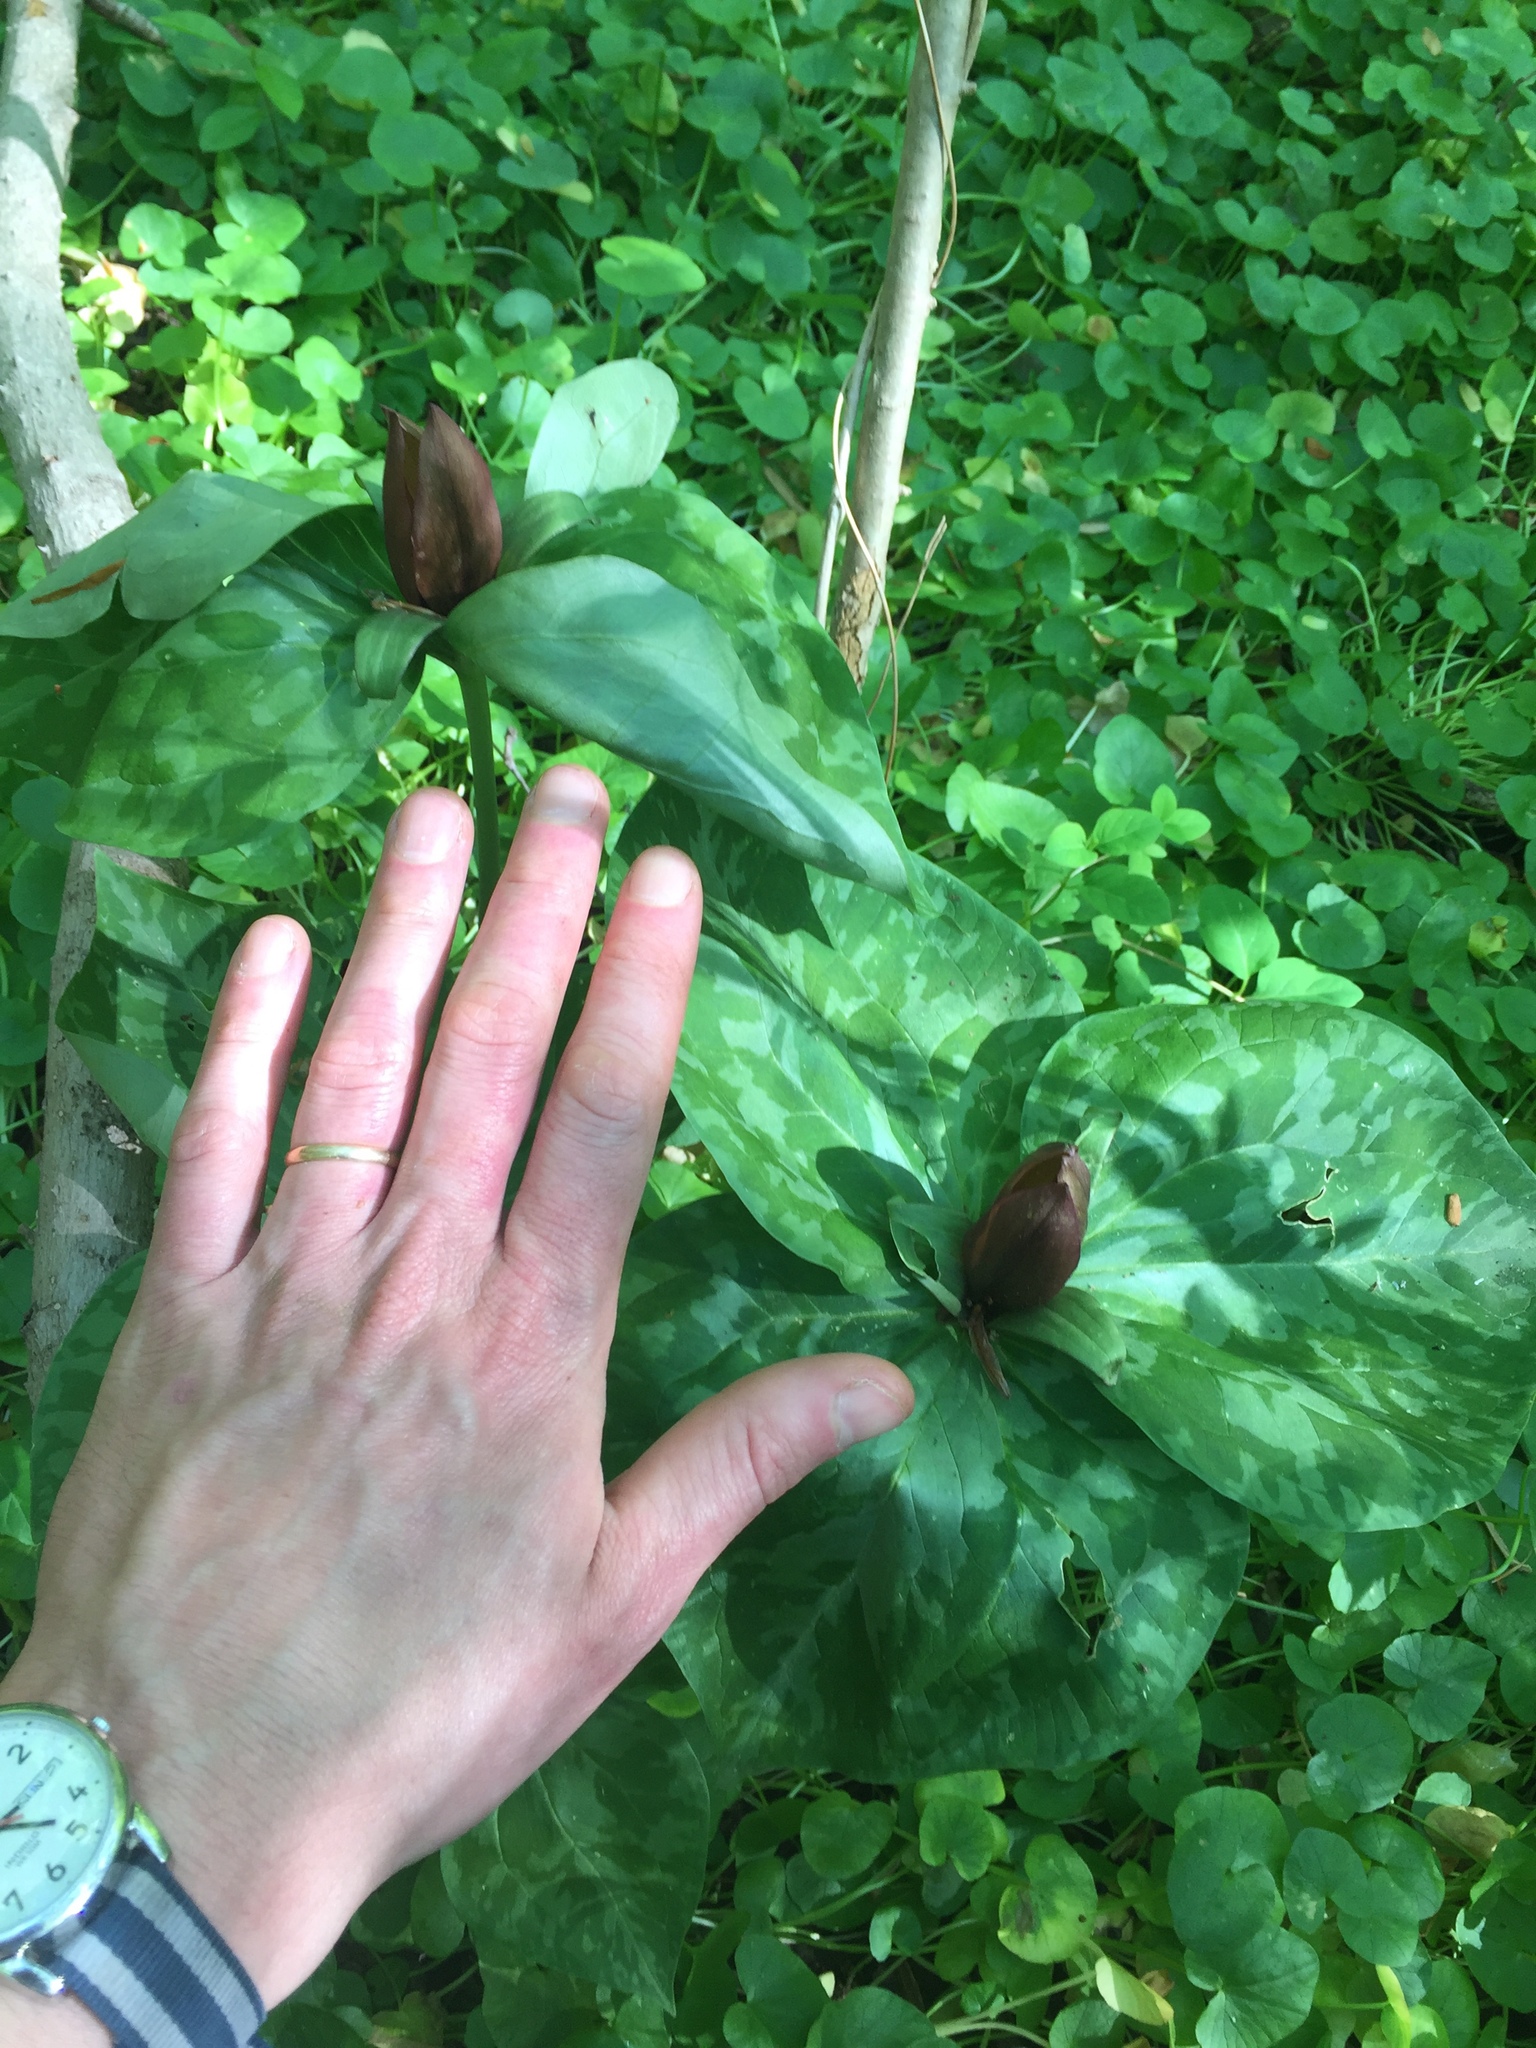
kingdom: Plantae
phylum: Tracheophyta
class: Liliopsida
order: Liliales
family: Melanthiaceae
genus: Trillium
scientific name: Trillium cuneatum
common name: Cuneate trillium
